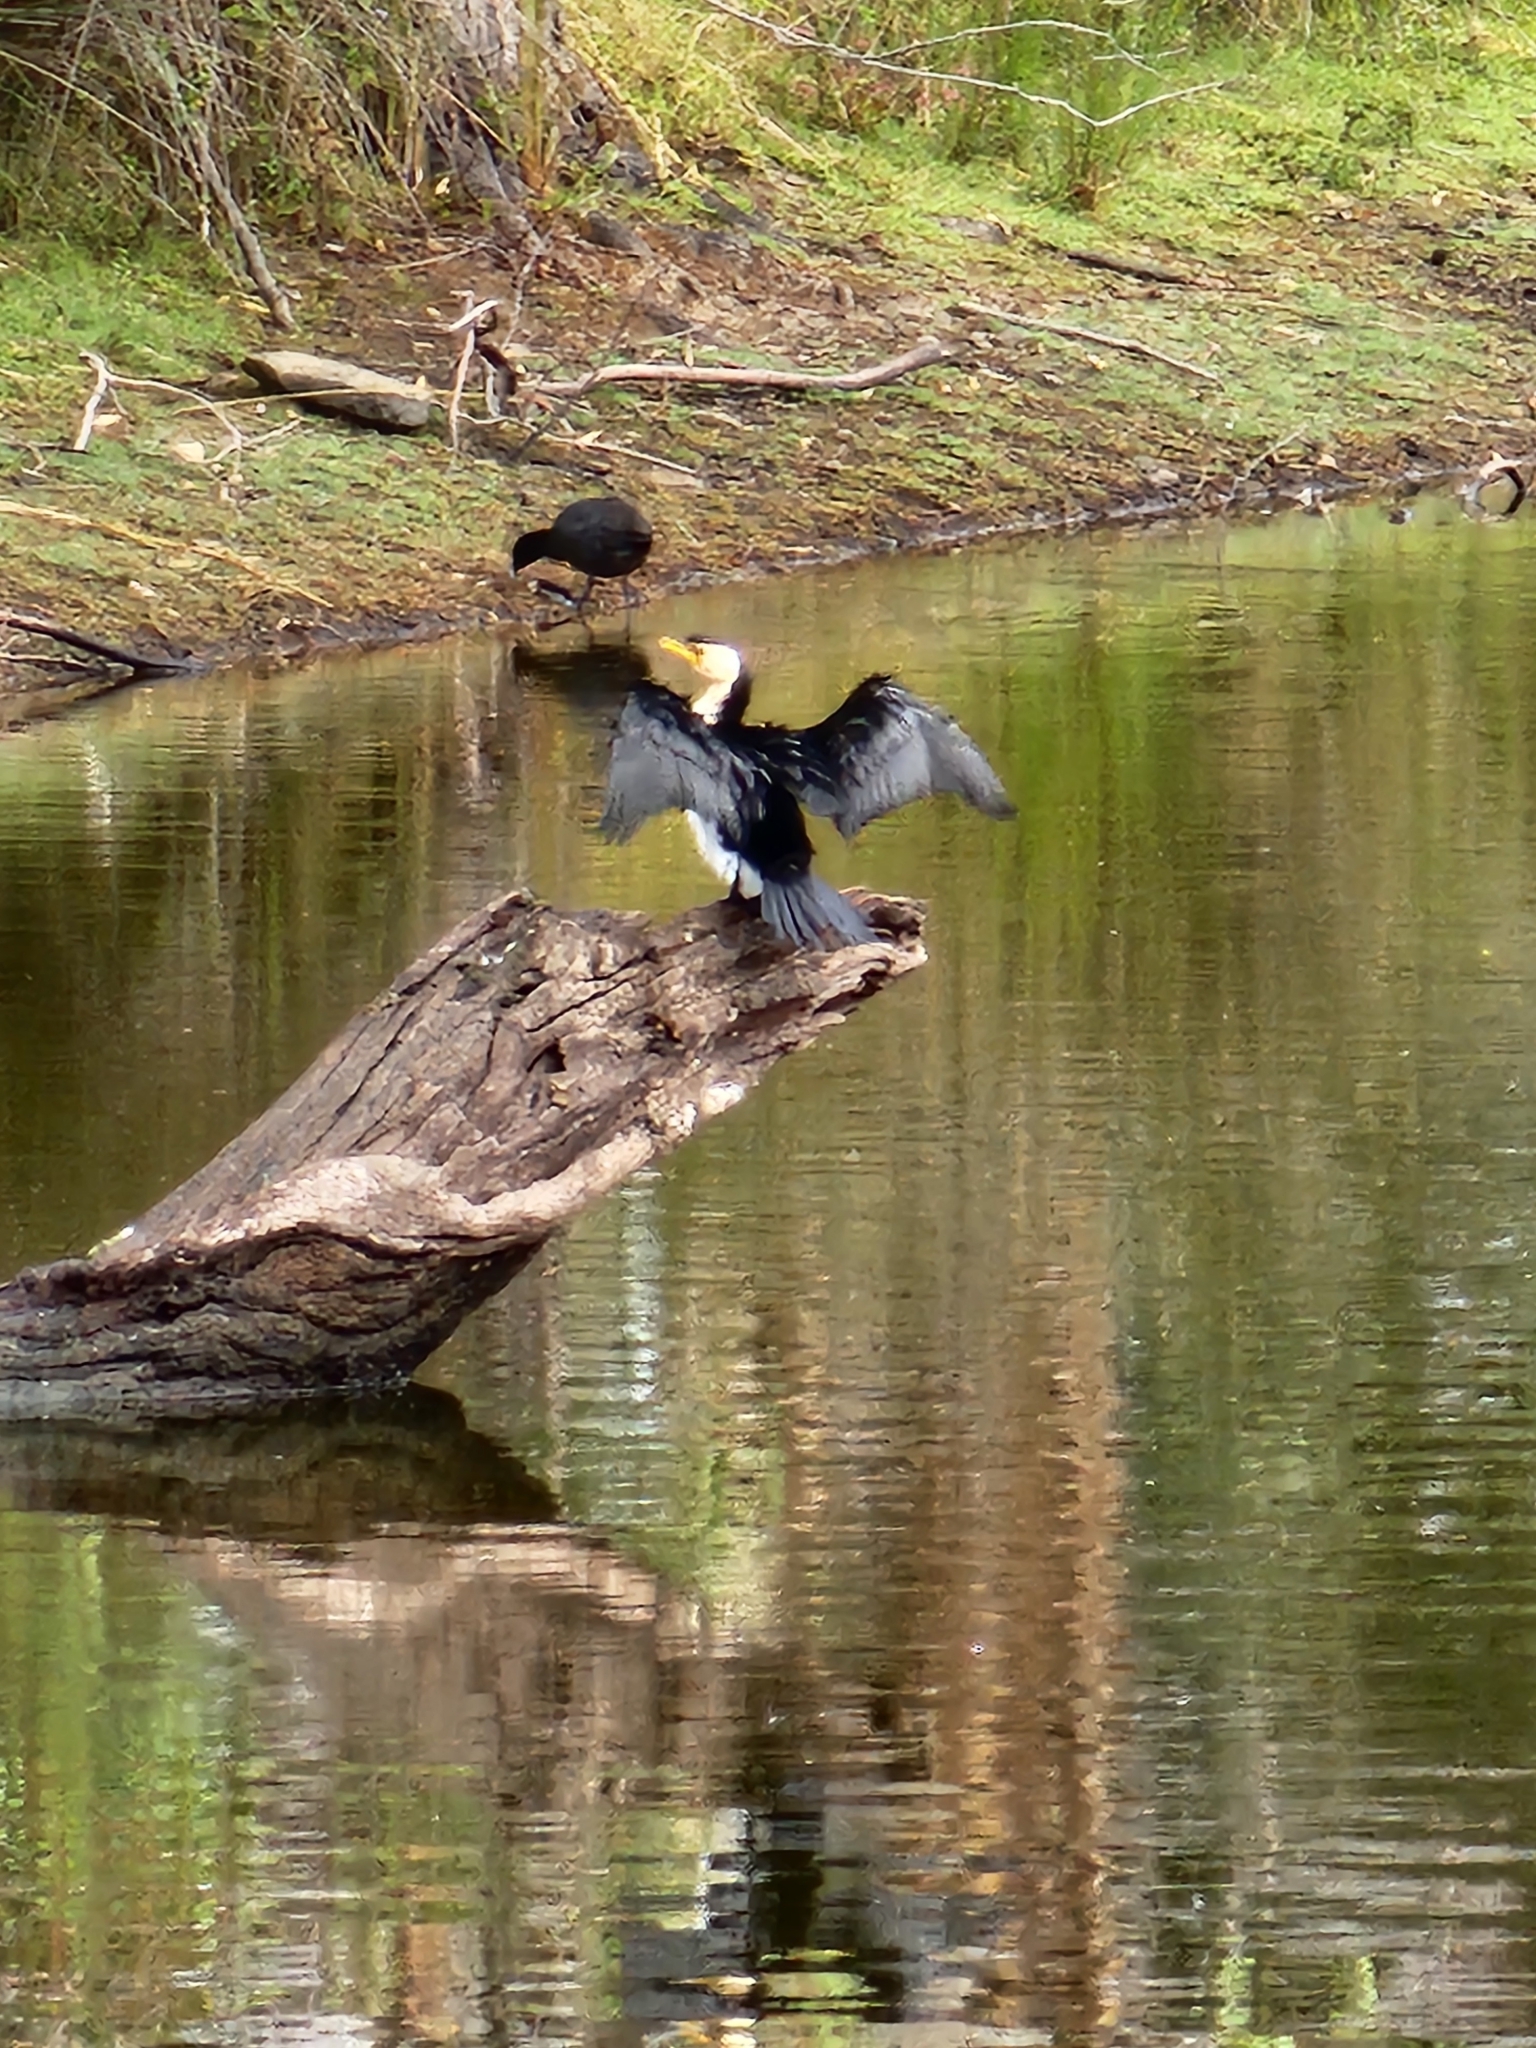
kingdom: Animalia
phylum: Chordata
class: Aves
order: Suliformes
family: Phalacrocoracidae
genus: Microcarbo
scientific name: Microcarbo melanoleucos
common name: Little pied cormorant
